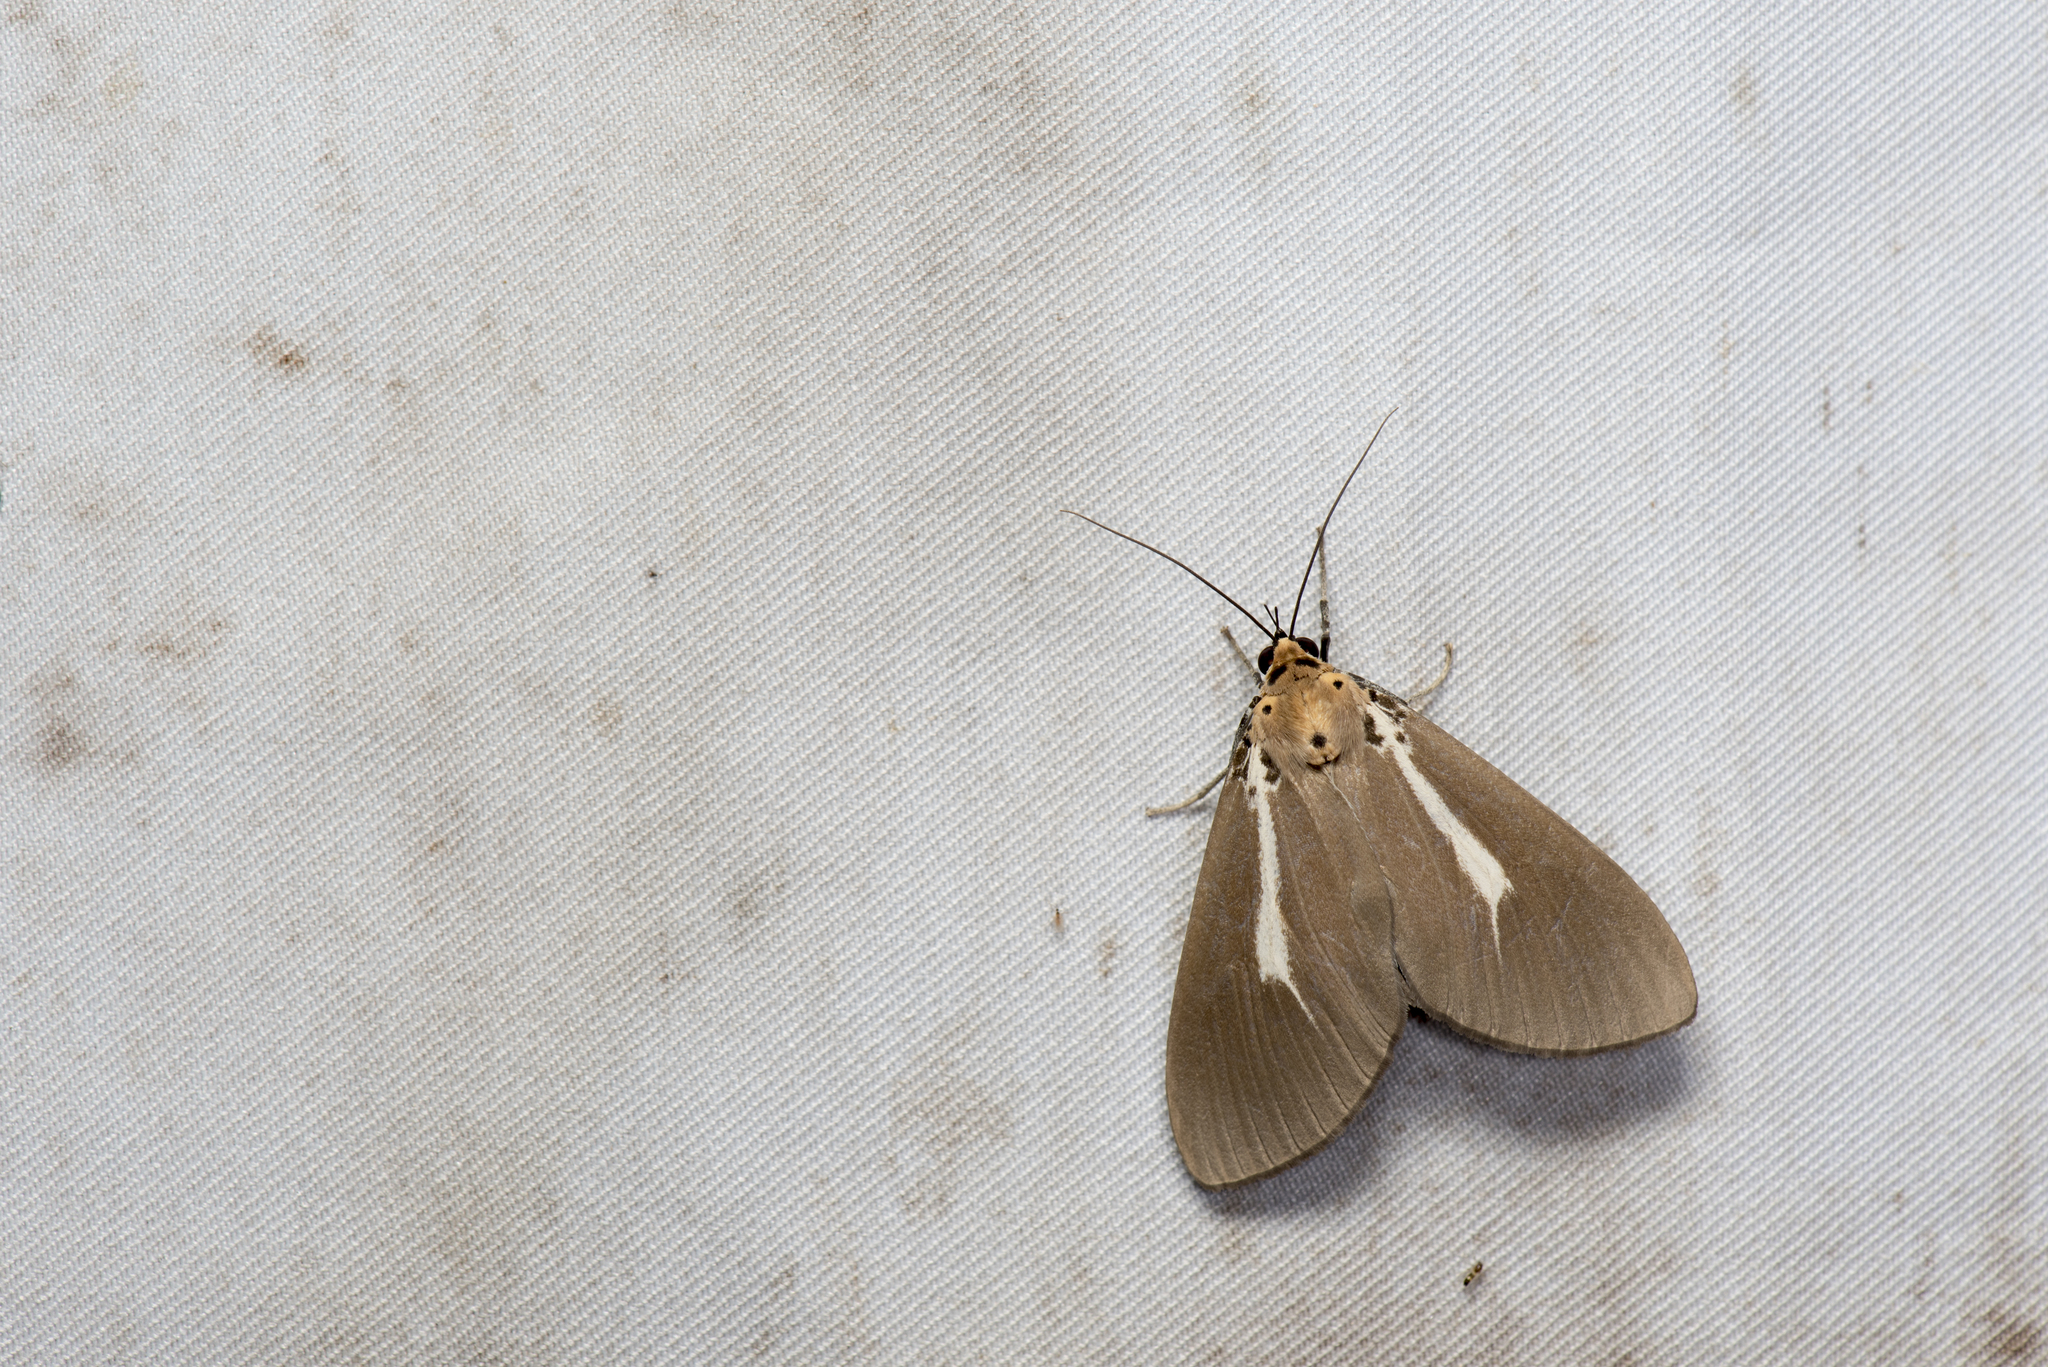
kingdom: Animalia
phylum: Arthropoda
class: Insecta
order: Lepidoptera
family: Erebidae
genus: Asota
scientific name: Asota heliconia
